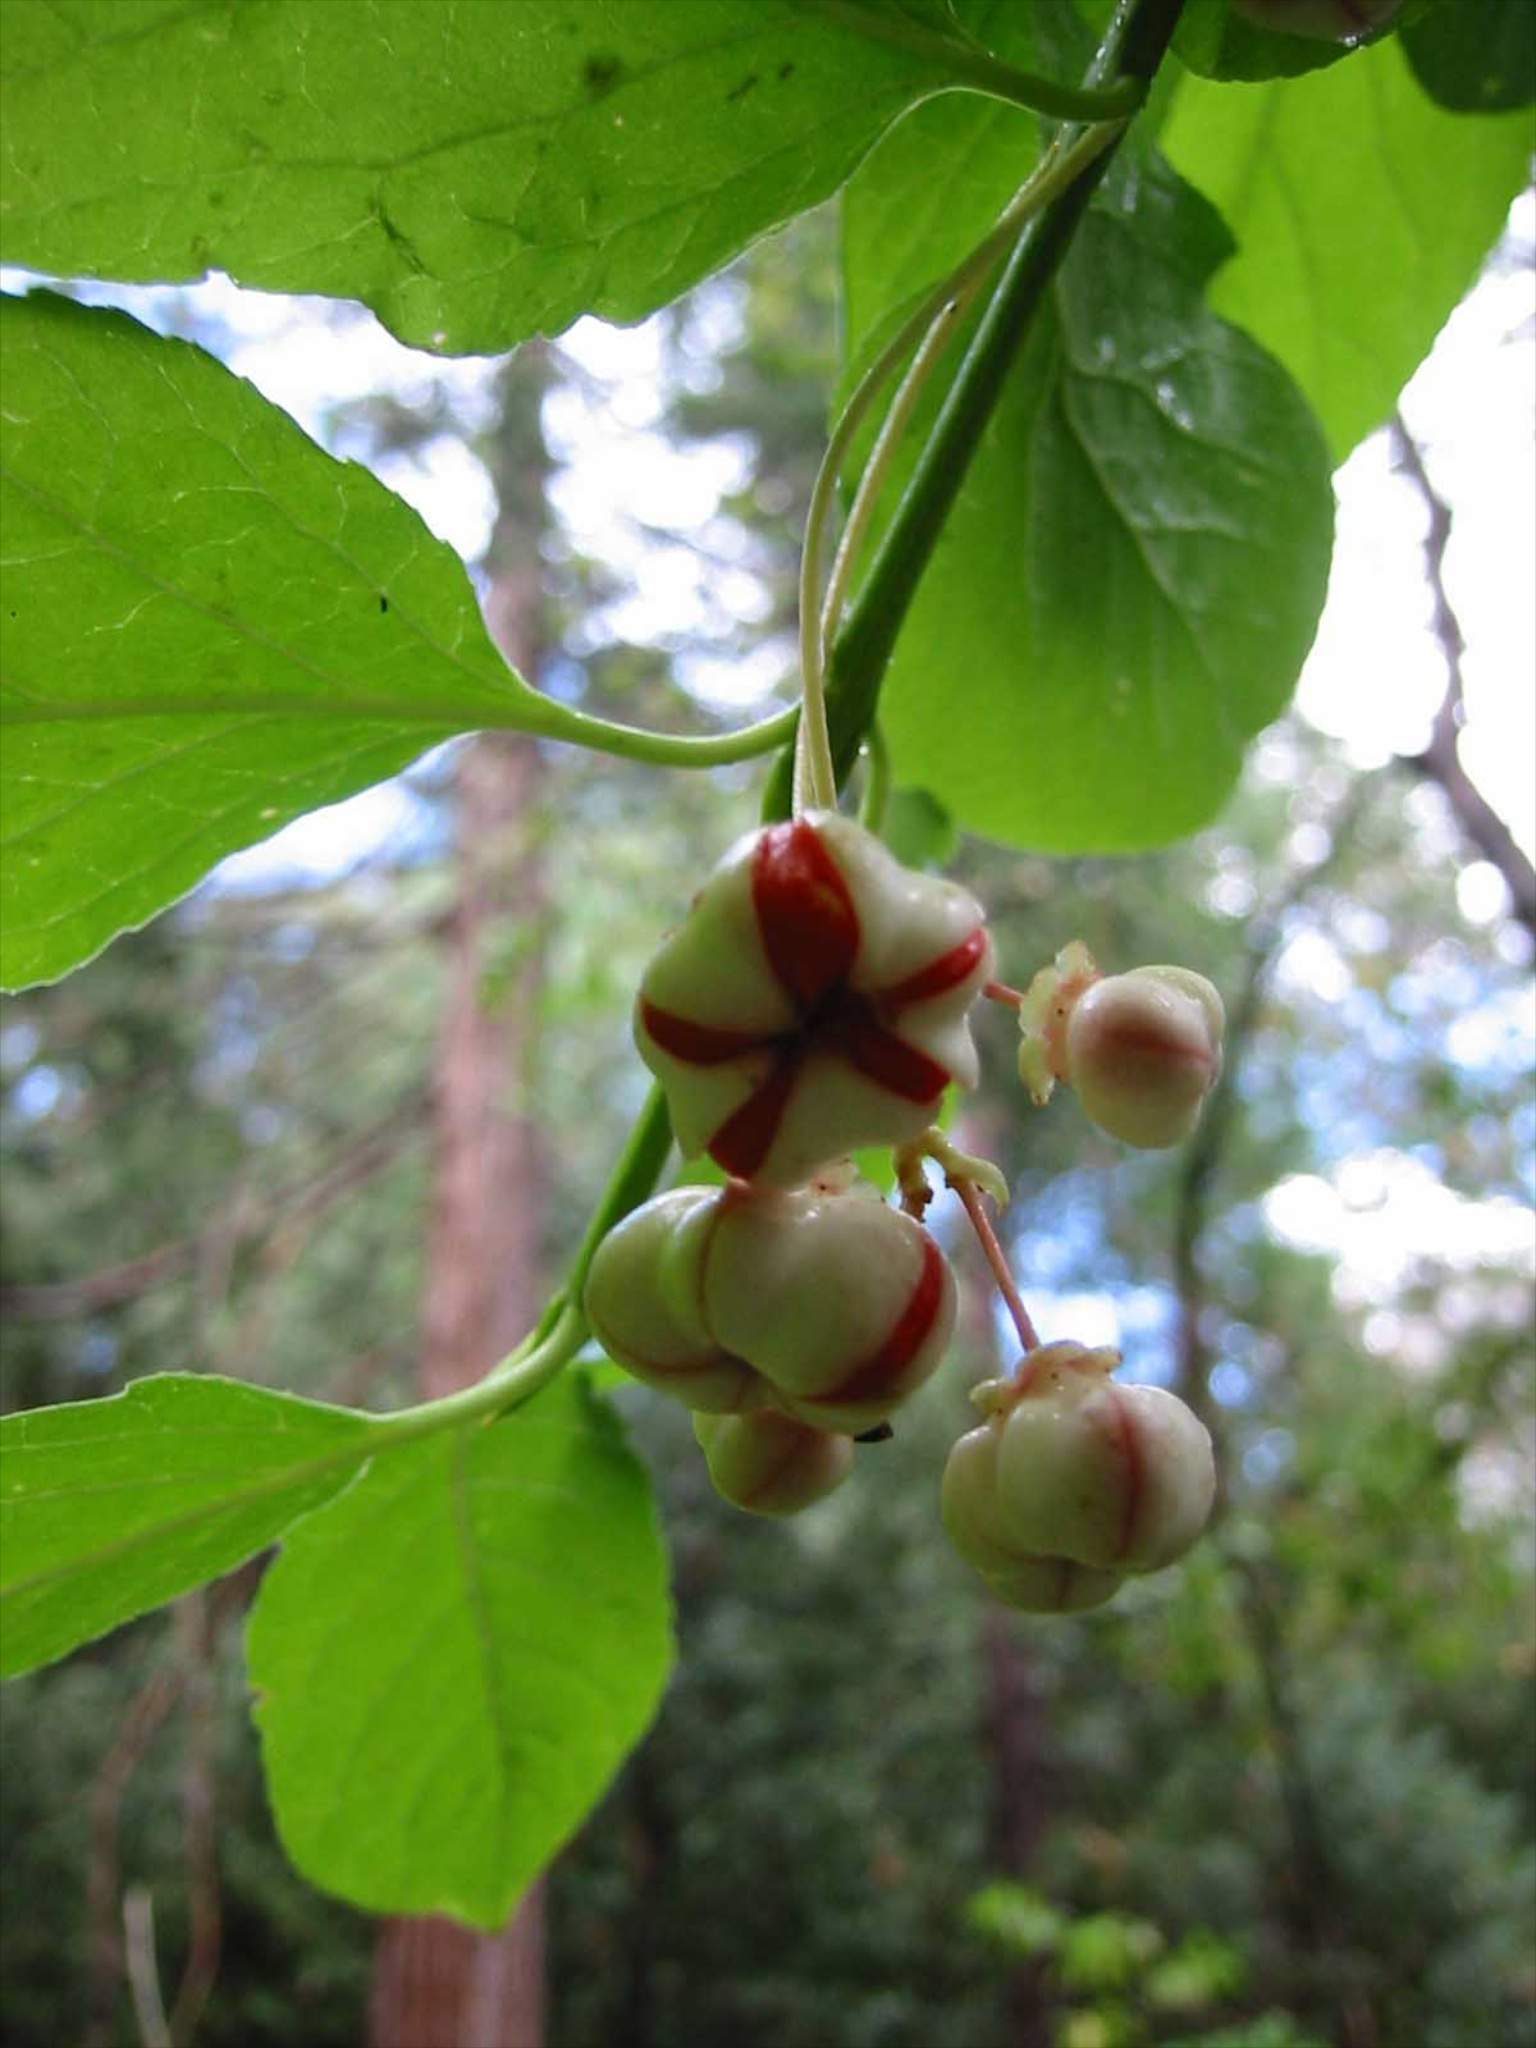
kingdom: Plantae
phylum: Tracheophyta
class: Magnoliopsida
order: Celastrales
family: Celastraceae
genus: Euonymus
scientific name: Euonymus occidentalis
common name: Western burningbush
